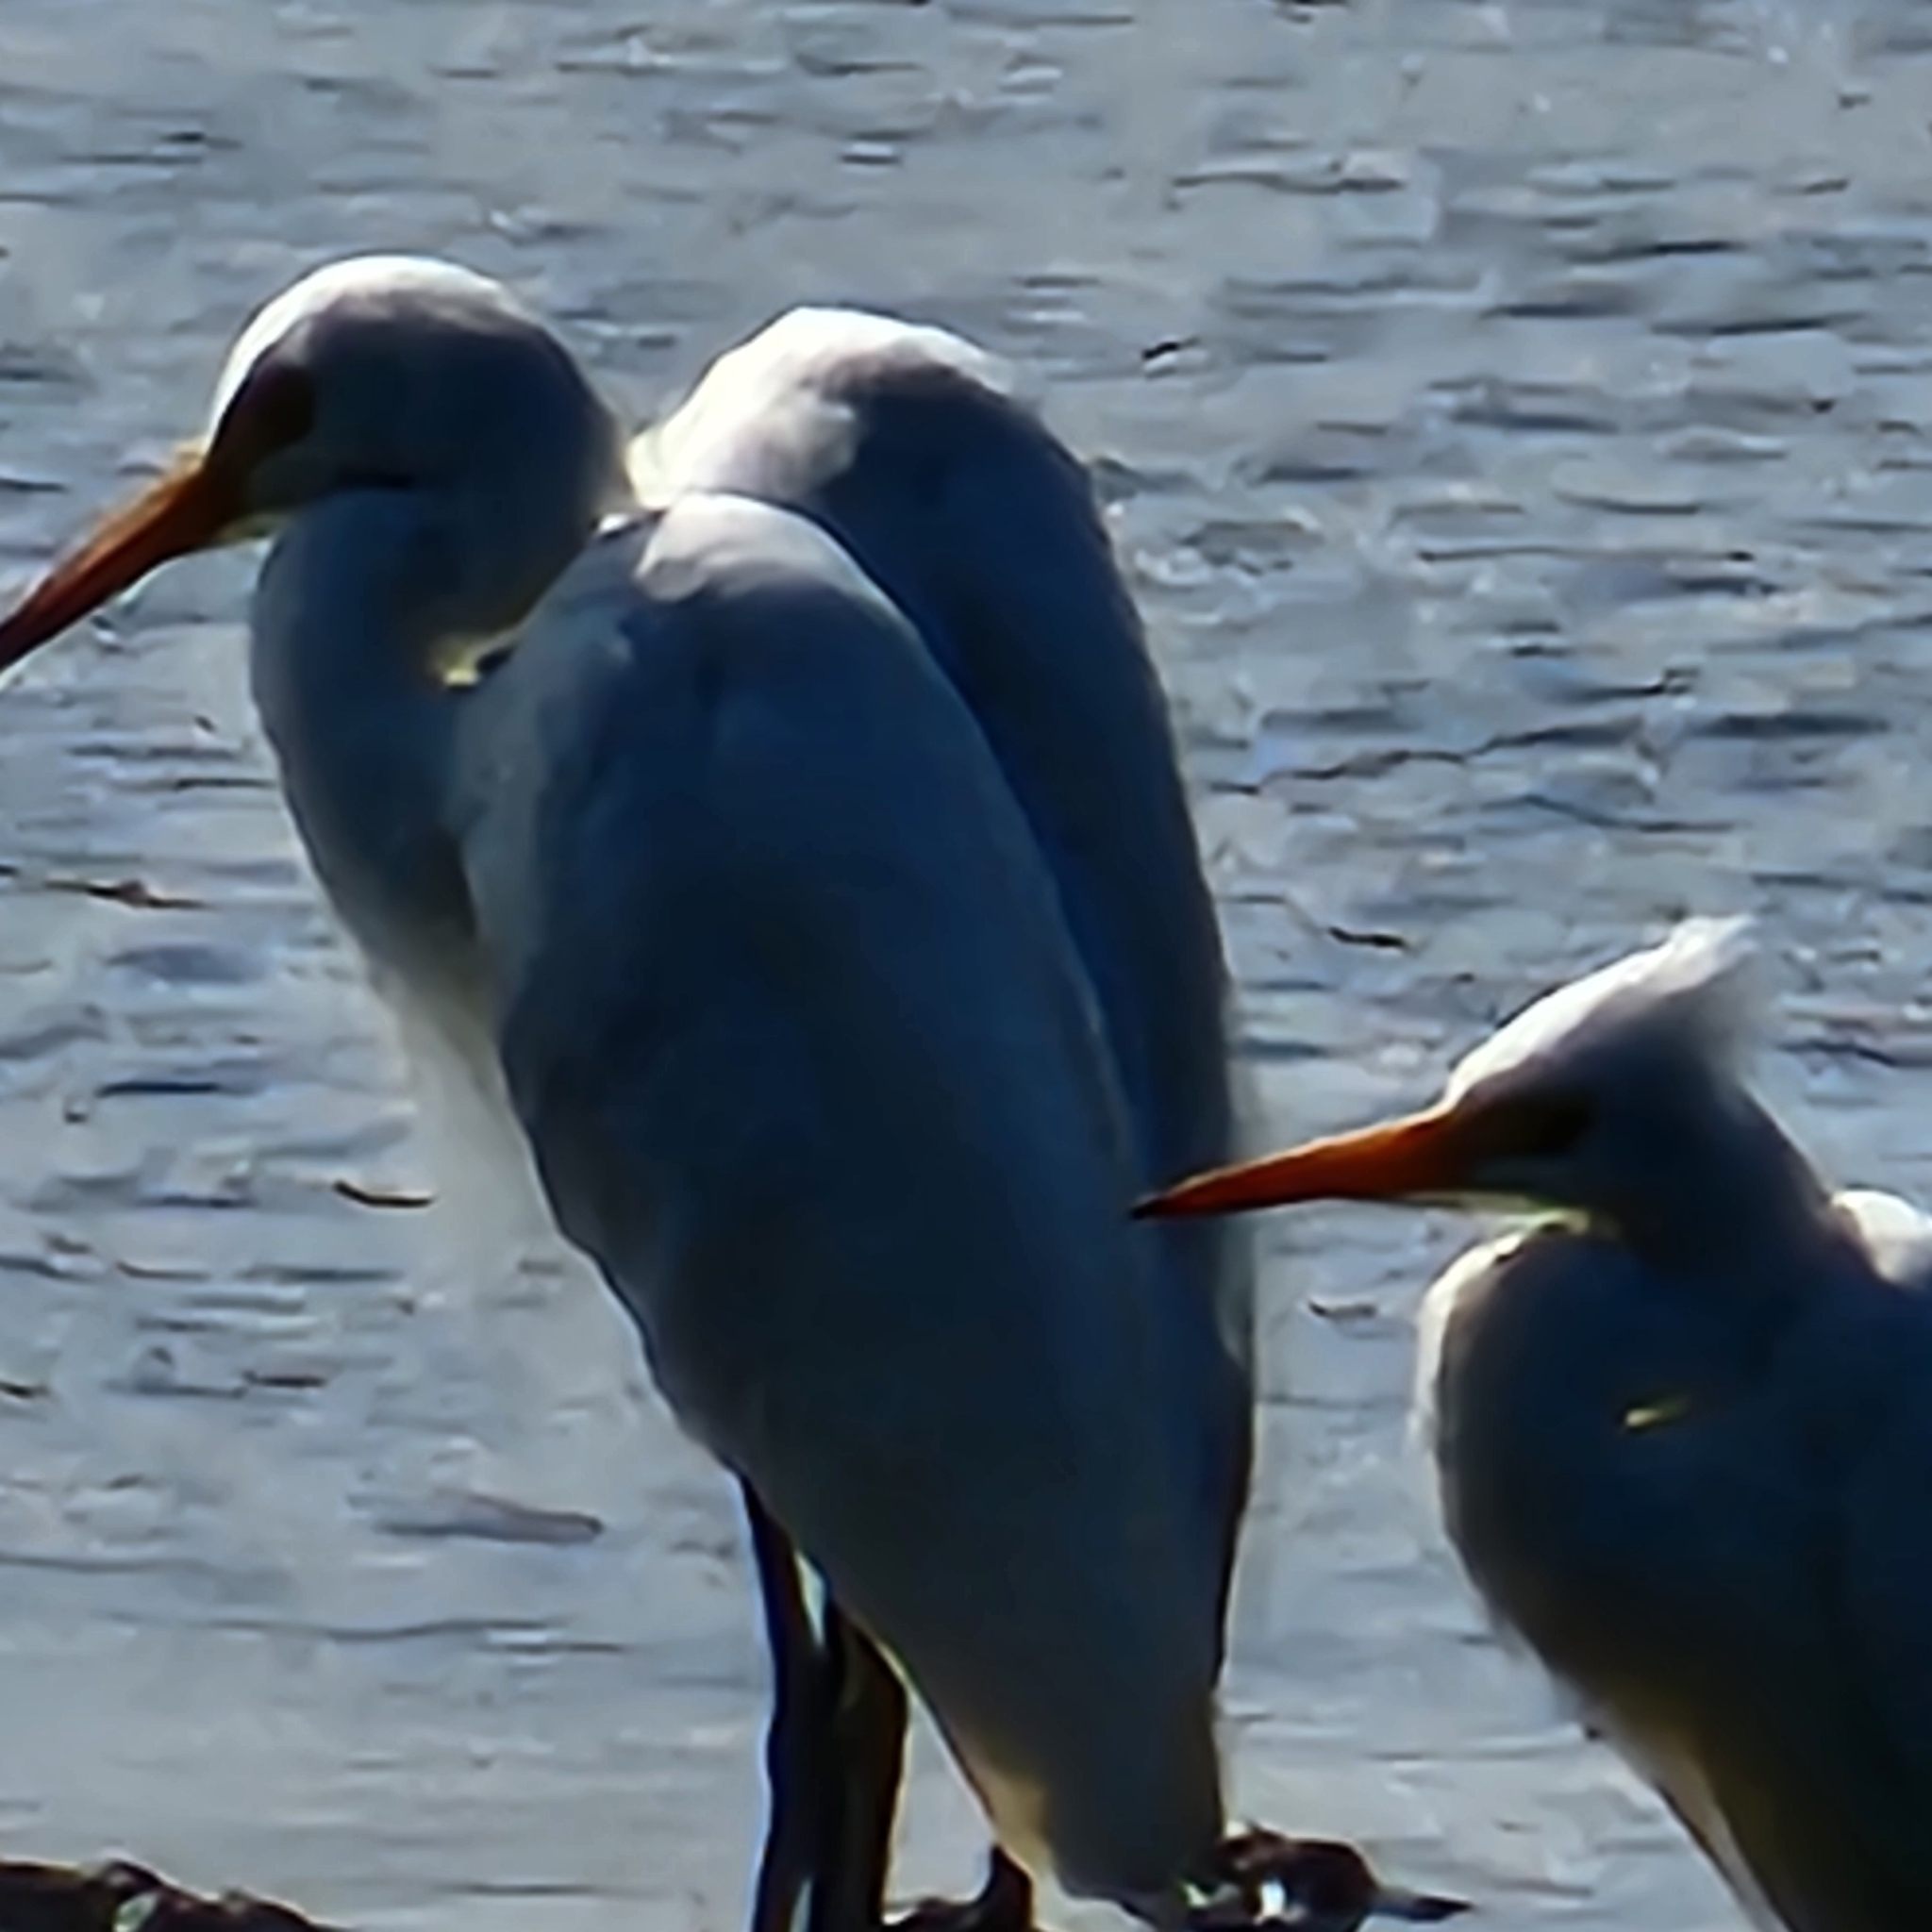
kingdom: Animalia
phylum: Chordata
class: Aves
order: Pelecaniformes
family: Ardeidae
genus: Egretta
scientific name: Egretta intermedia
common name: Intermediate egret
